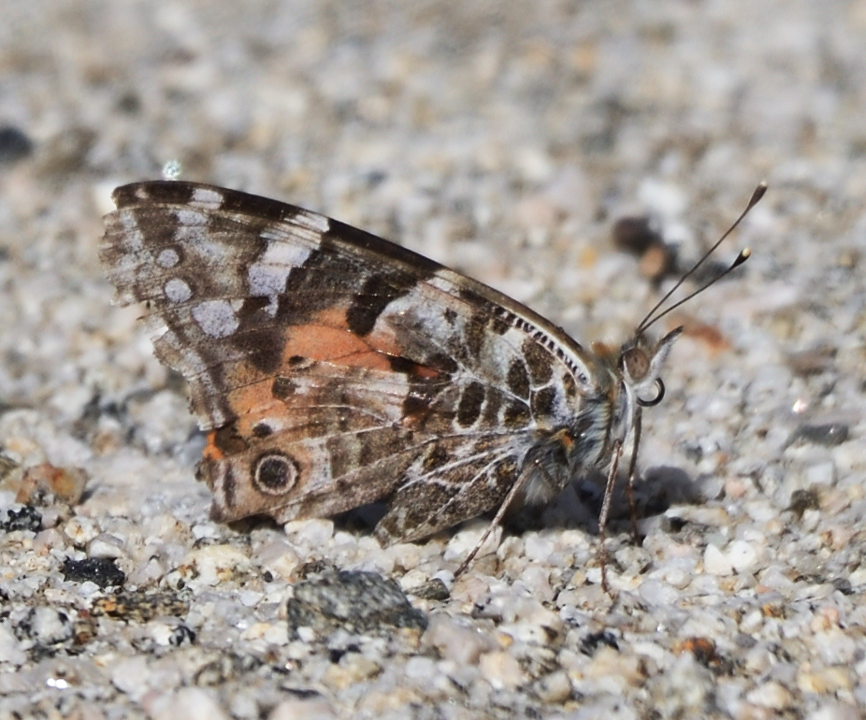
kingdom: Animalia
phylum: Arthropoda
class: Insecta
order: Lepidoptera
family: Nymphalidae
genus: Vanessa
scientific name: Vanessa cardui
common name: Painted lady
